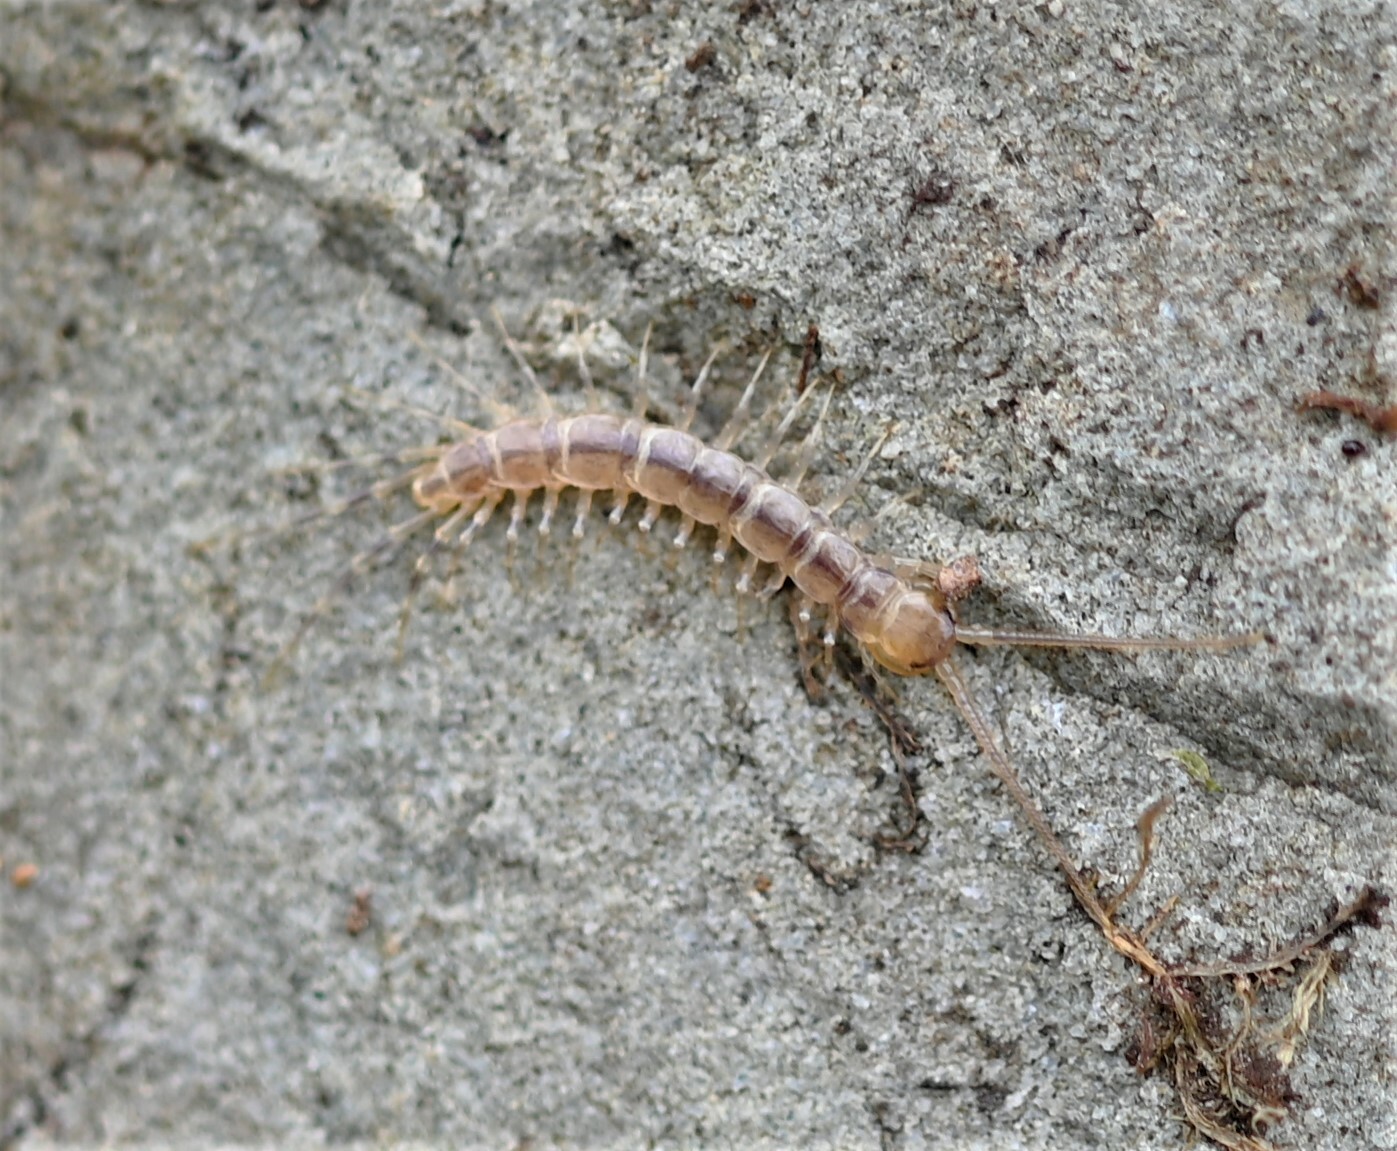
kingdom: Animalia
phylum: Arthropoda
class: Chilopoda
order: Lithobiomorpha
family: Lithobiidae
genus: Lithobius
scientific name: Lithobius variegatus
